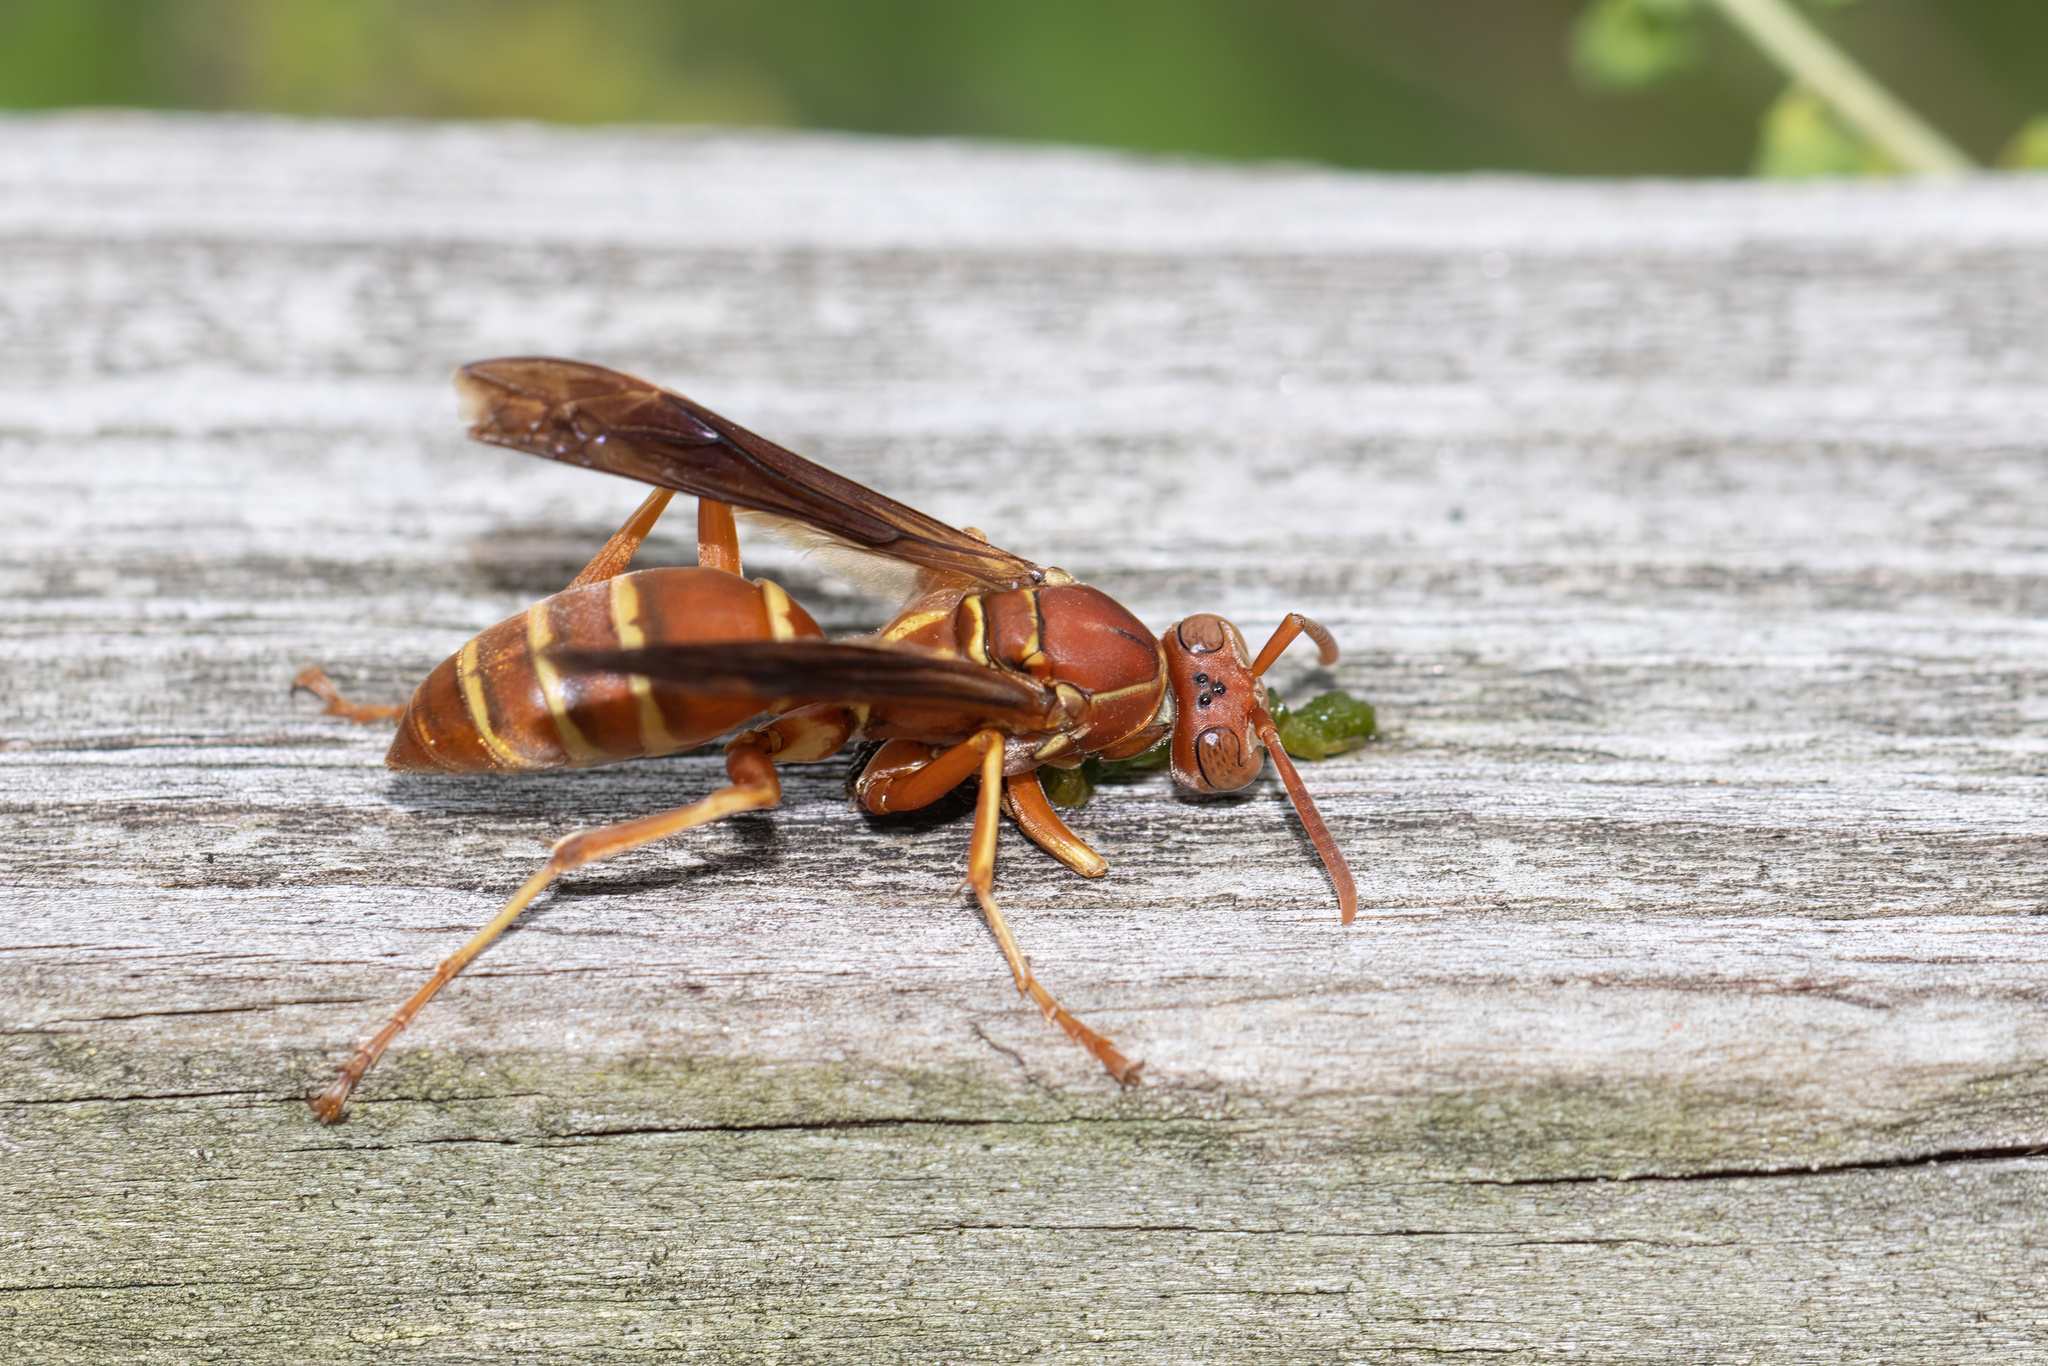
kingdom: Animalia
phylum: Arthropoda
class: Insecta
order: Hymenoptera
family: Eumenidae
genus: Polistes
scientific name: Polistes bellicosus
